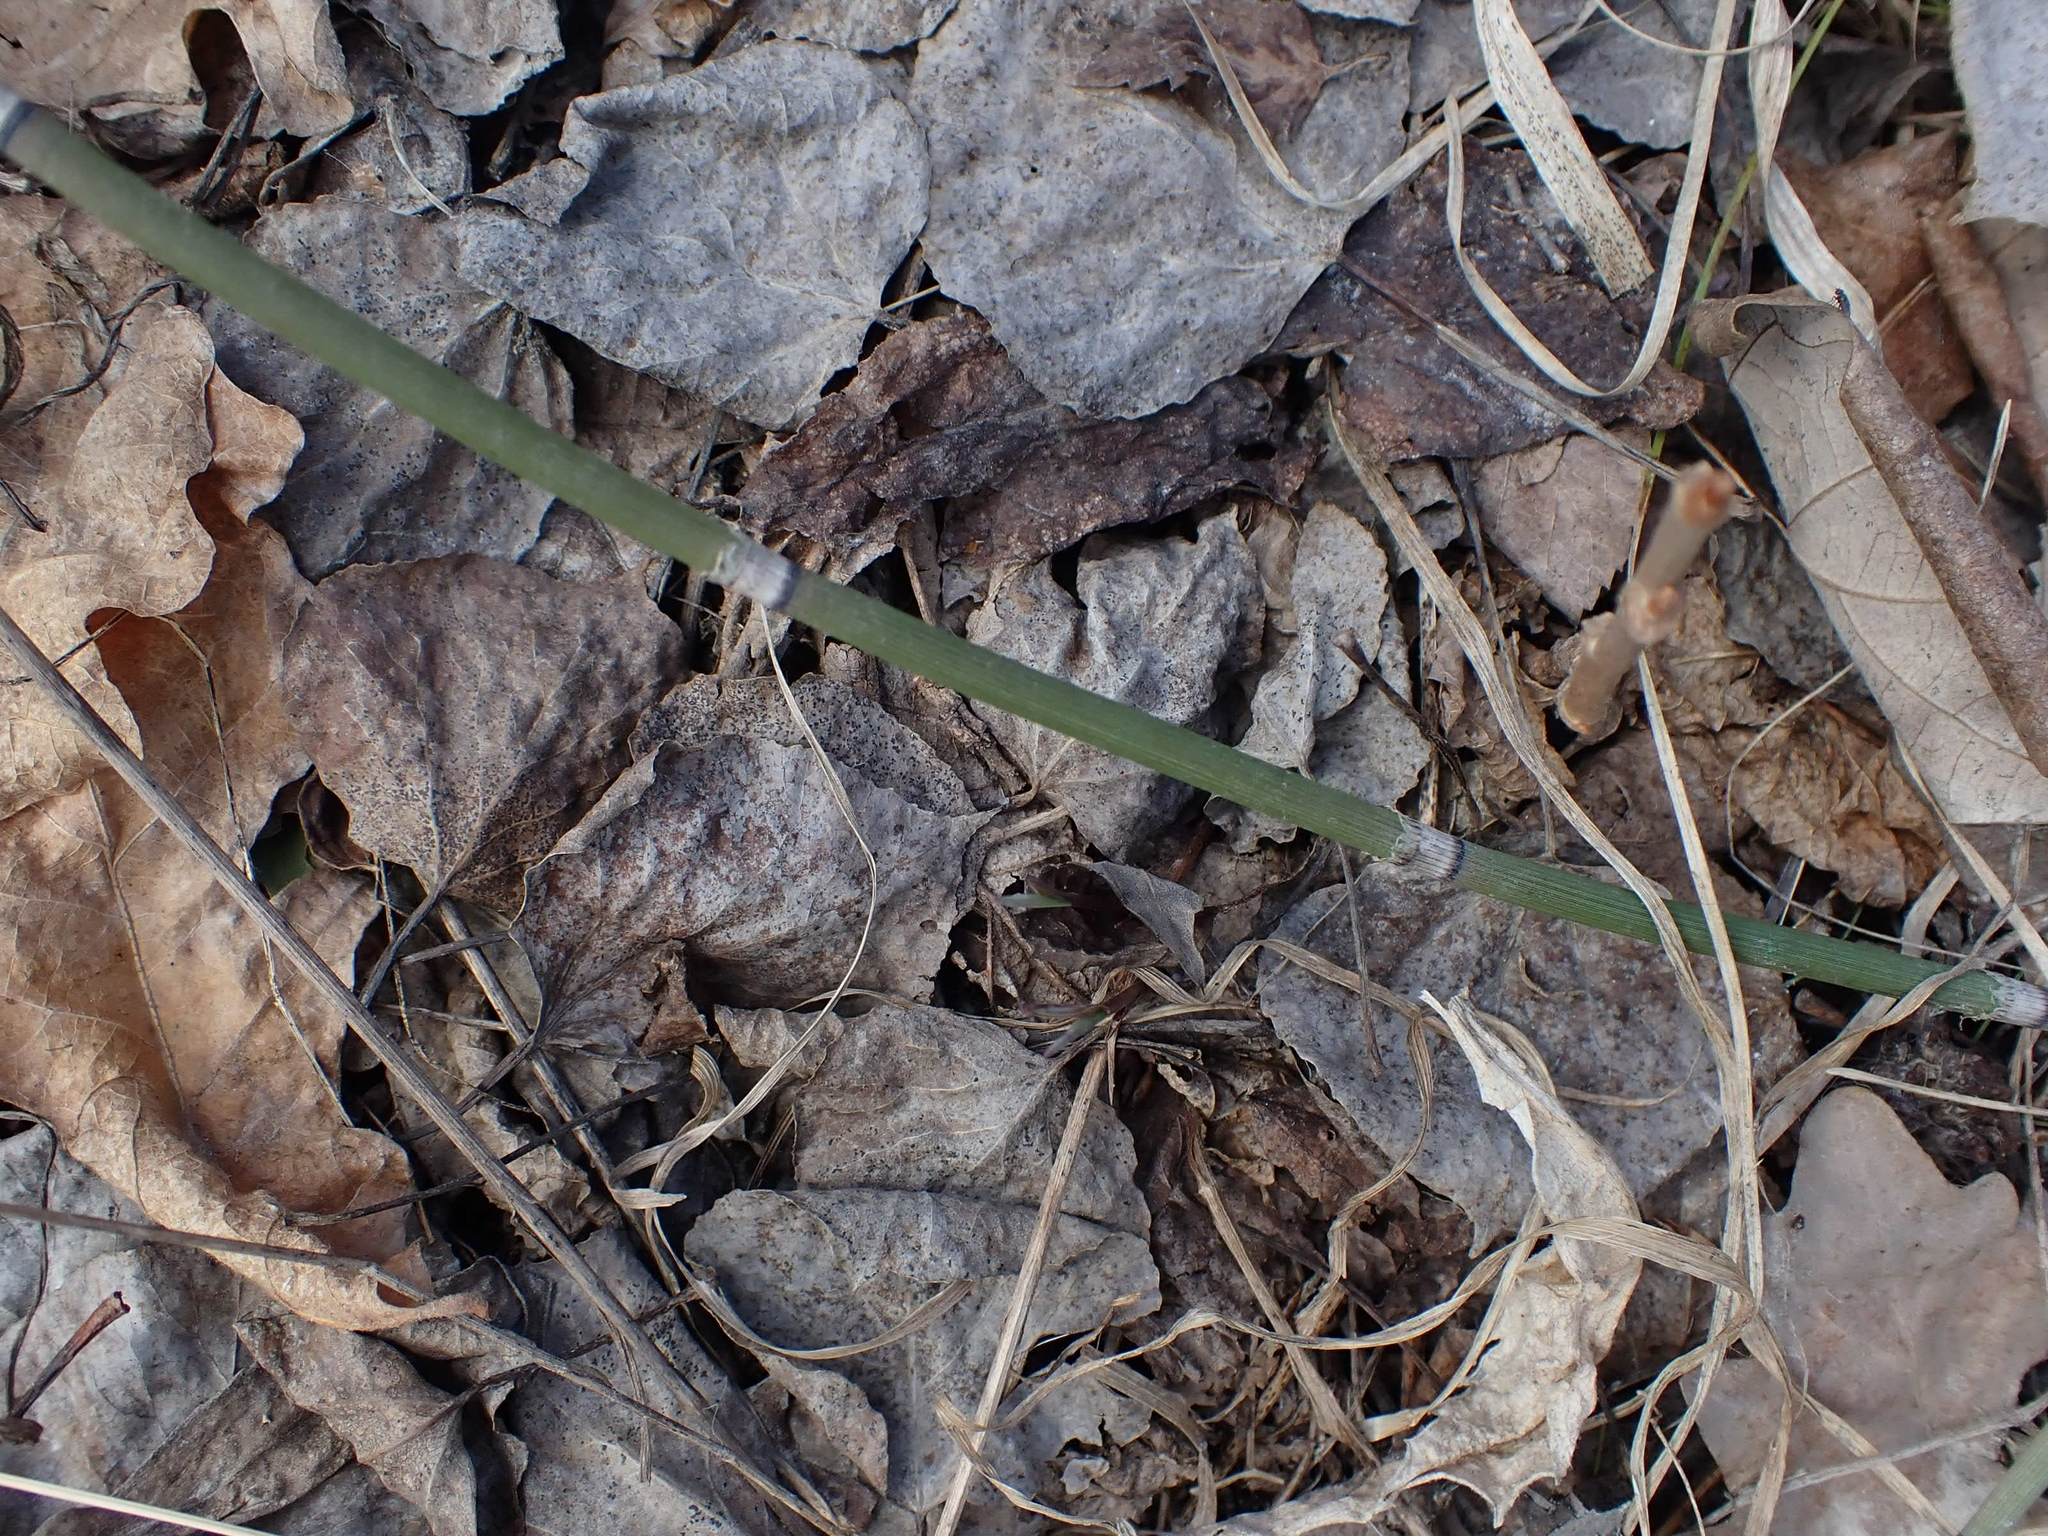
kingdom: Plantae
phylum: Tracheophyta
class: Polypodiopsida
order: Equisetales
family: Equisetaceae
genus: Equisetum
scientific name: Equisetum praealtum
